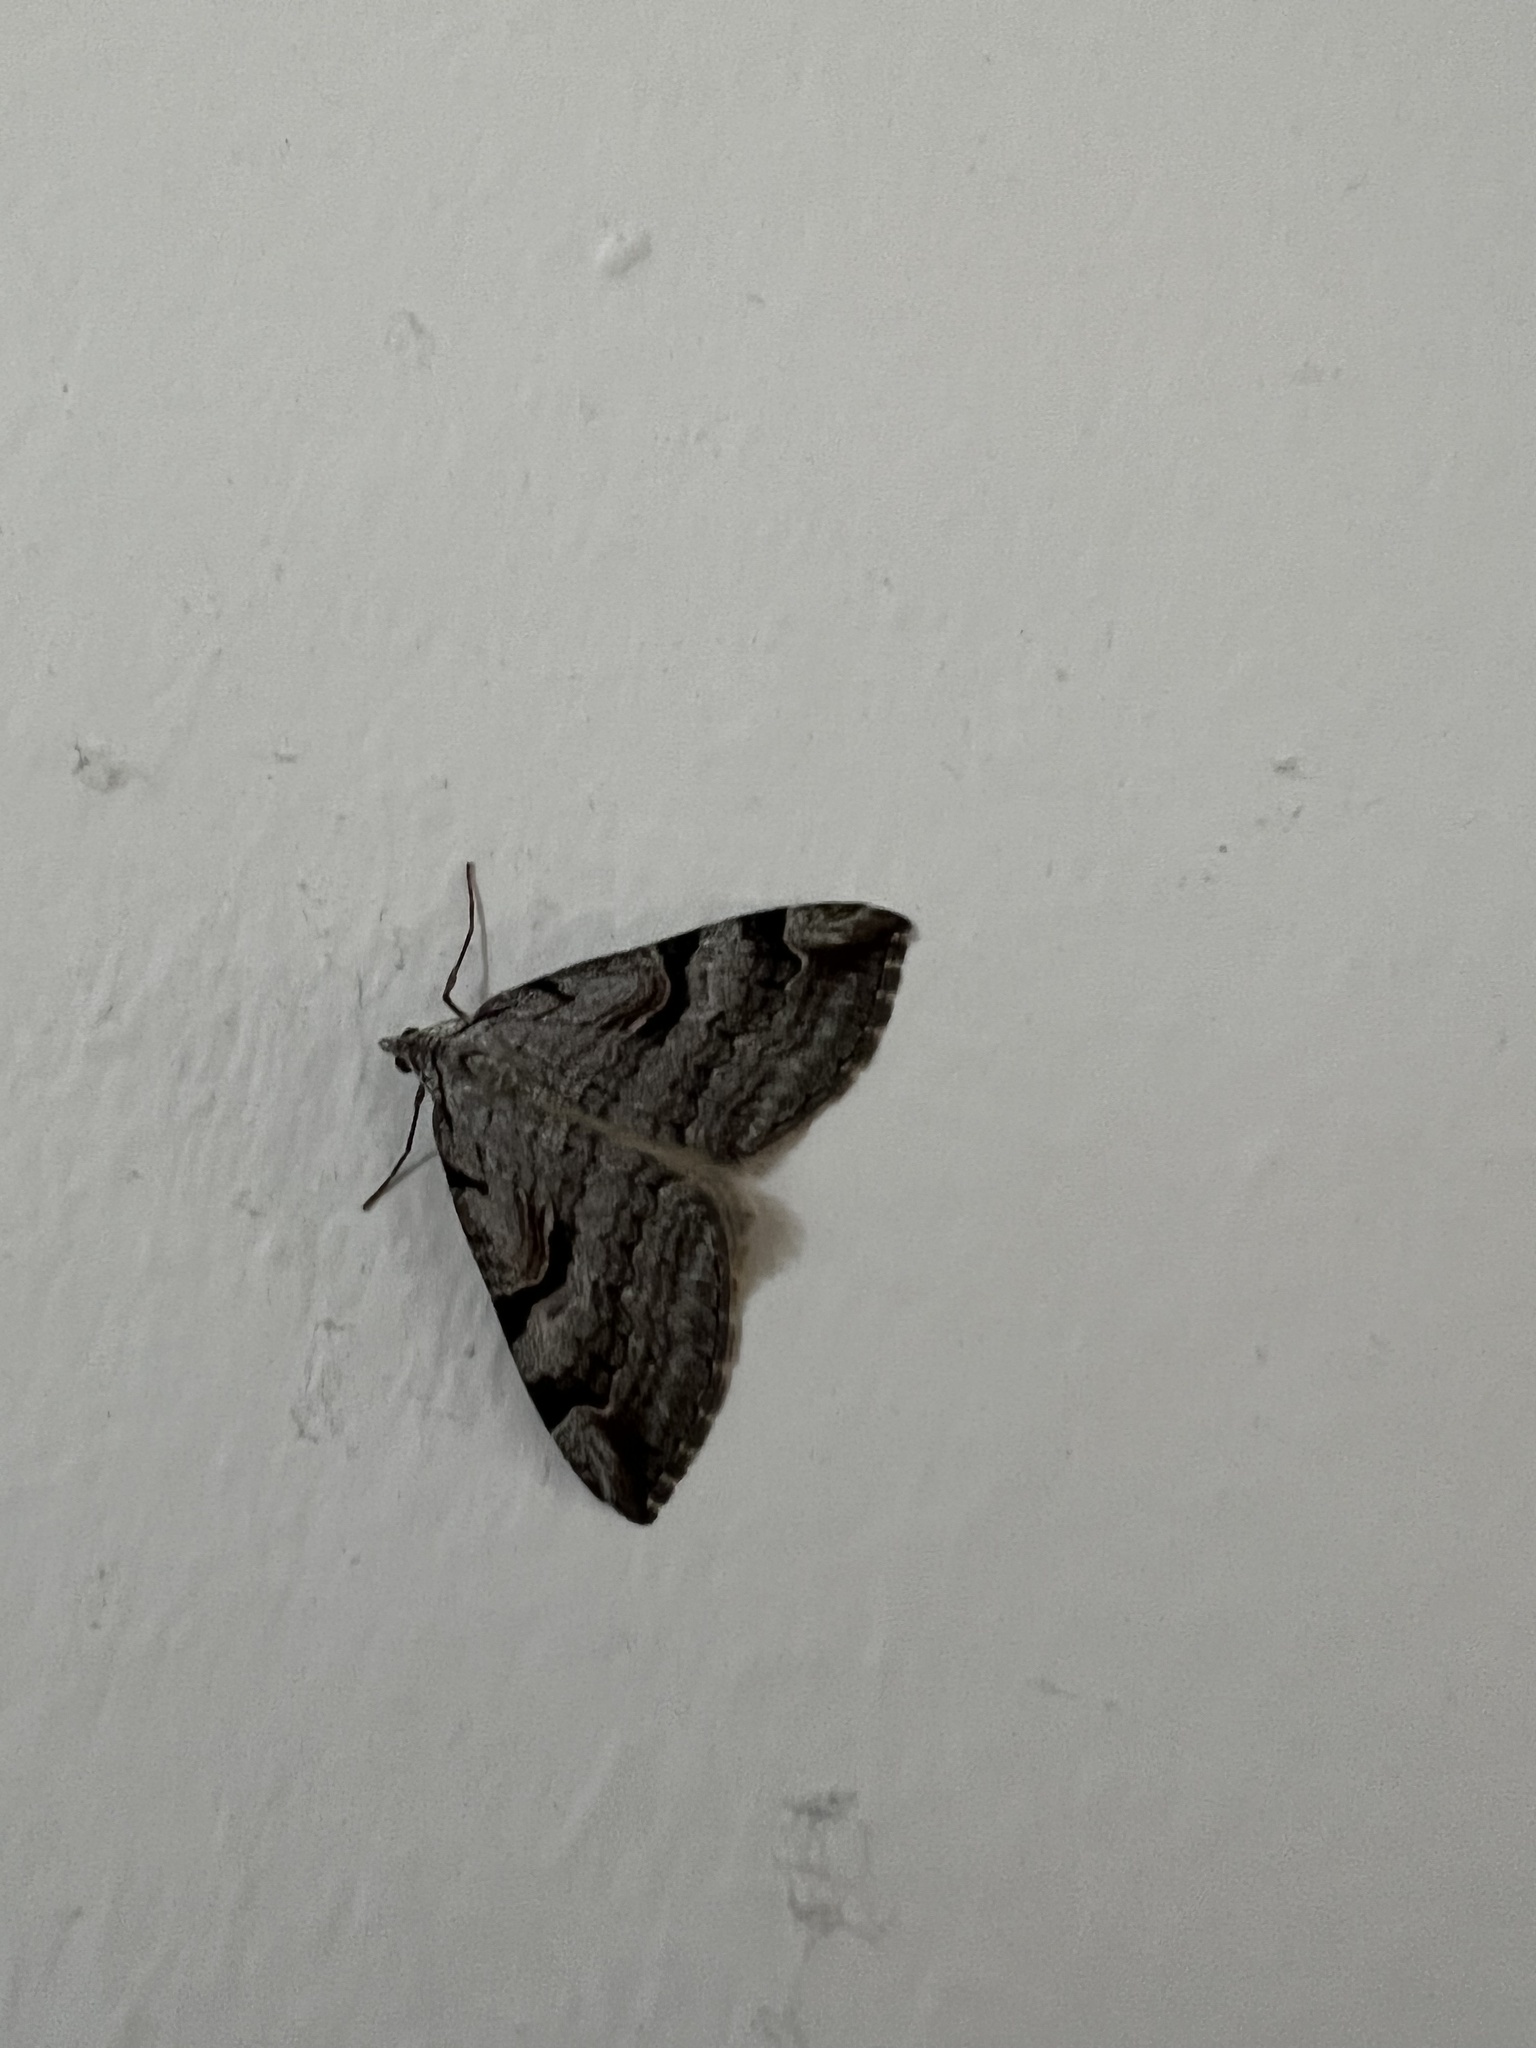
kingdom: Animalia
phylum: Arthropoda
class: Insecta
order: Lepidoptera
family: Geometridae
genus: Aplocera
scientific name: Aplocera praeformata
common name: Purple treble-bar
